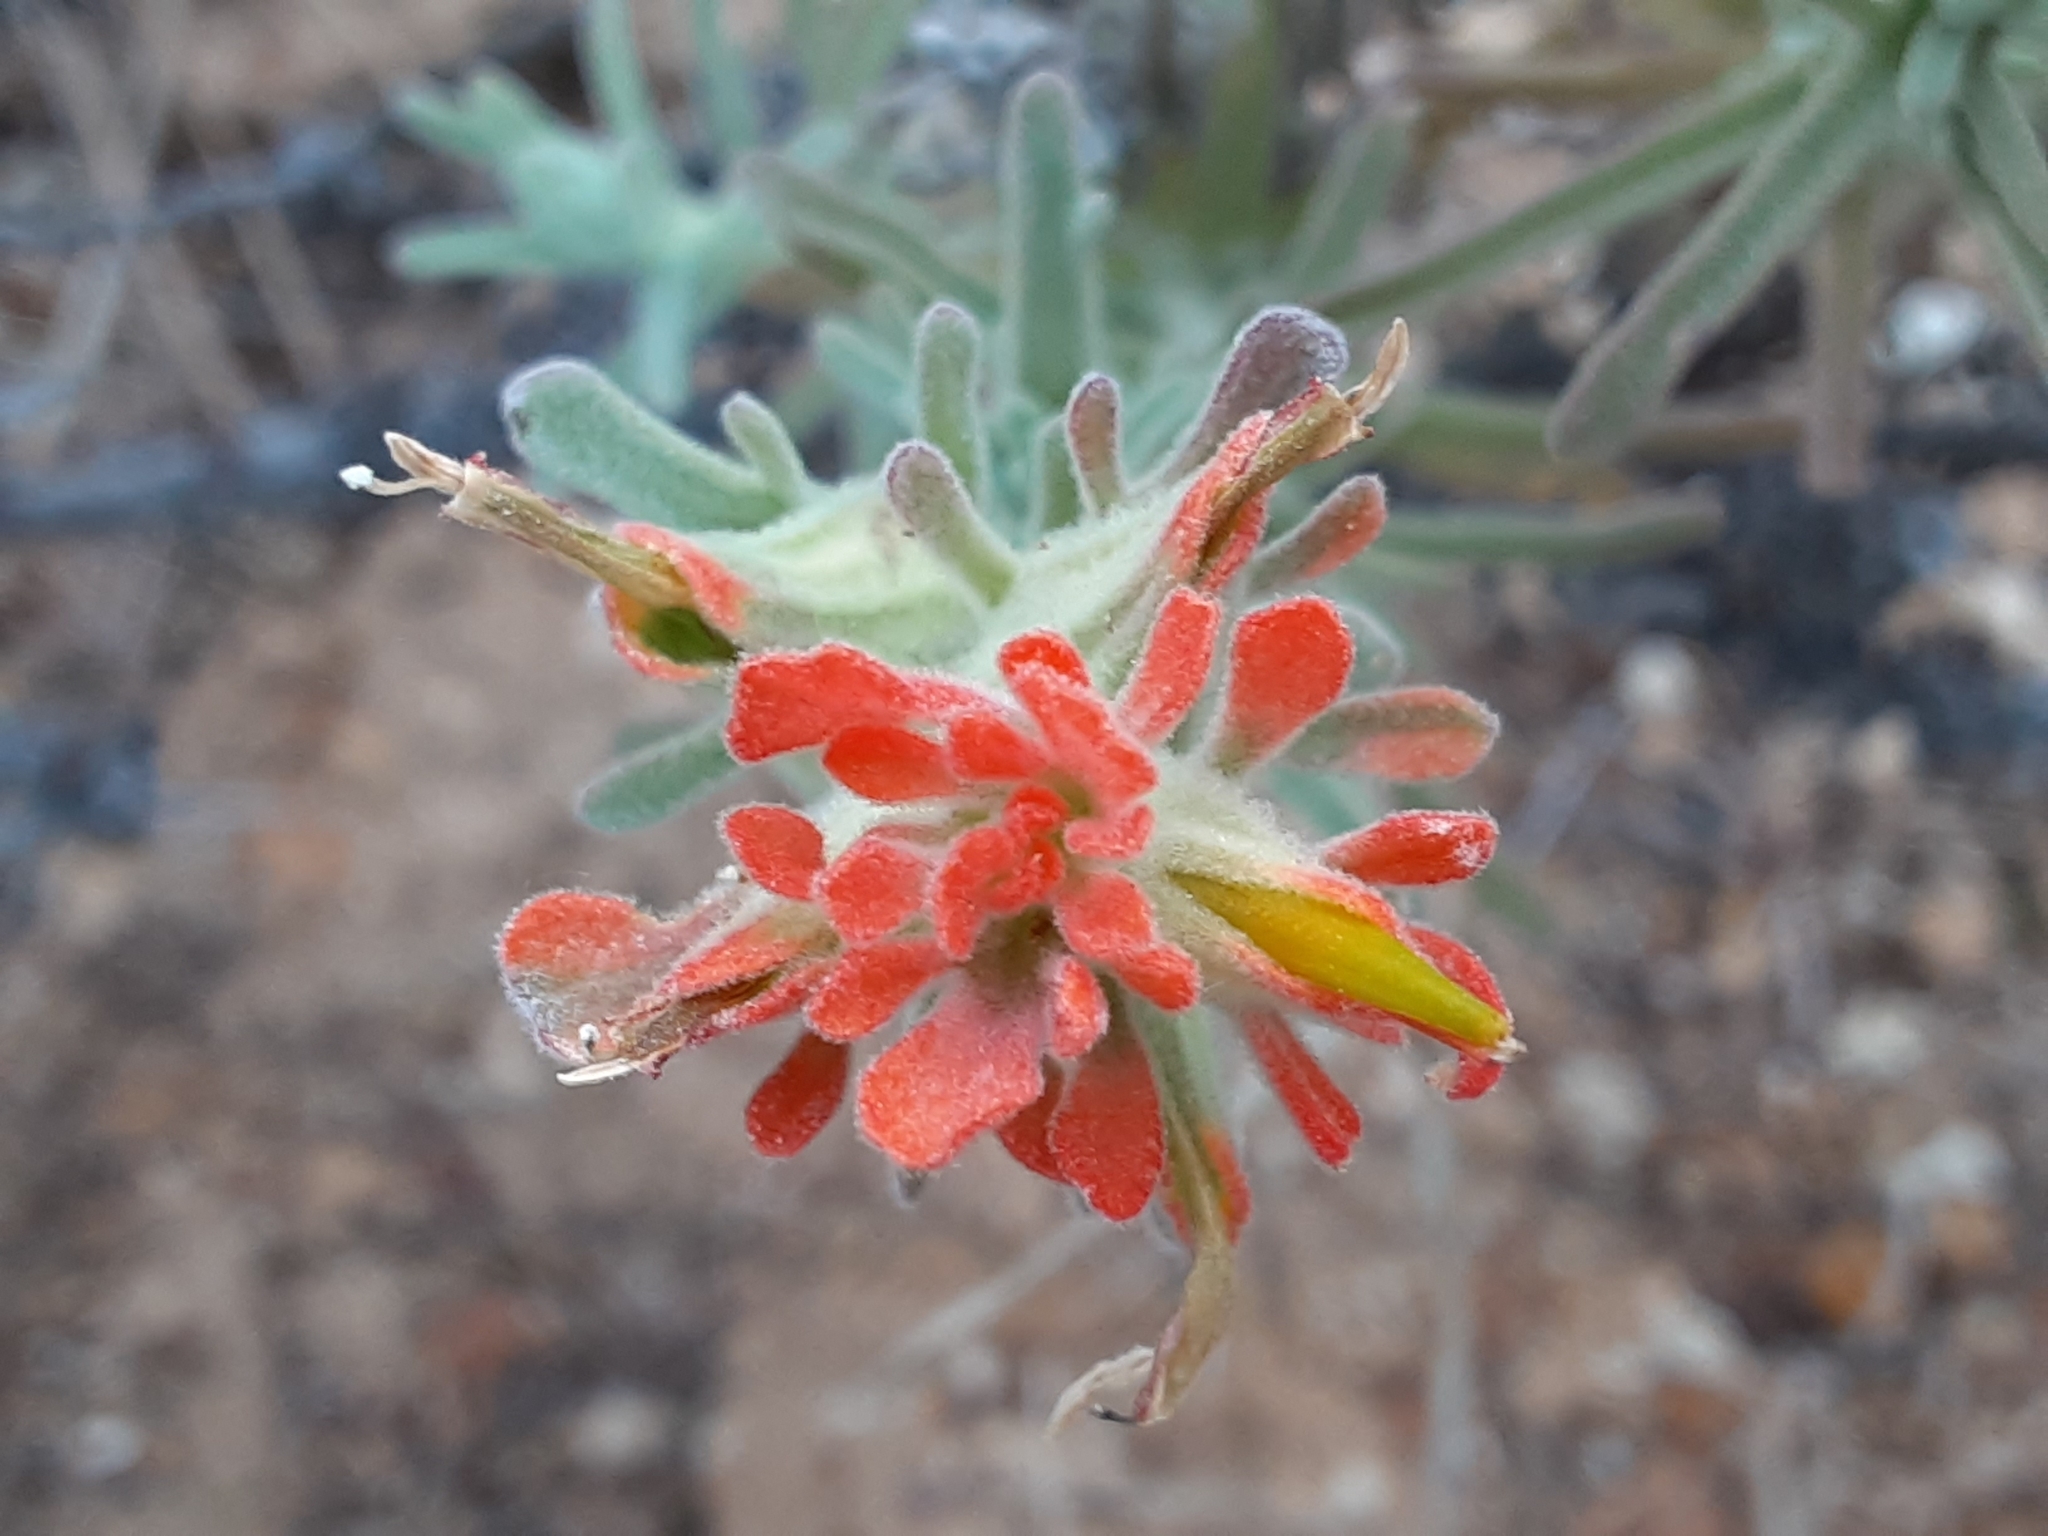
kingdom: Plantae
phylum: Tracheophyta
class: Magnoliopsida
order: Lamiales
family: Orobanchaceae
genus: Castilleja
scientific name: Castilleja foliolosa
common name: Woolly indian paintbrush
